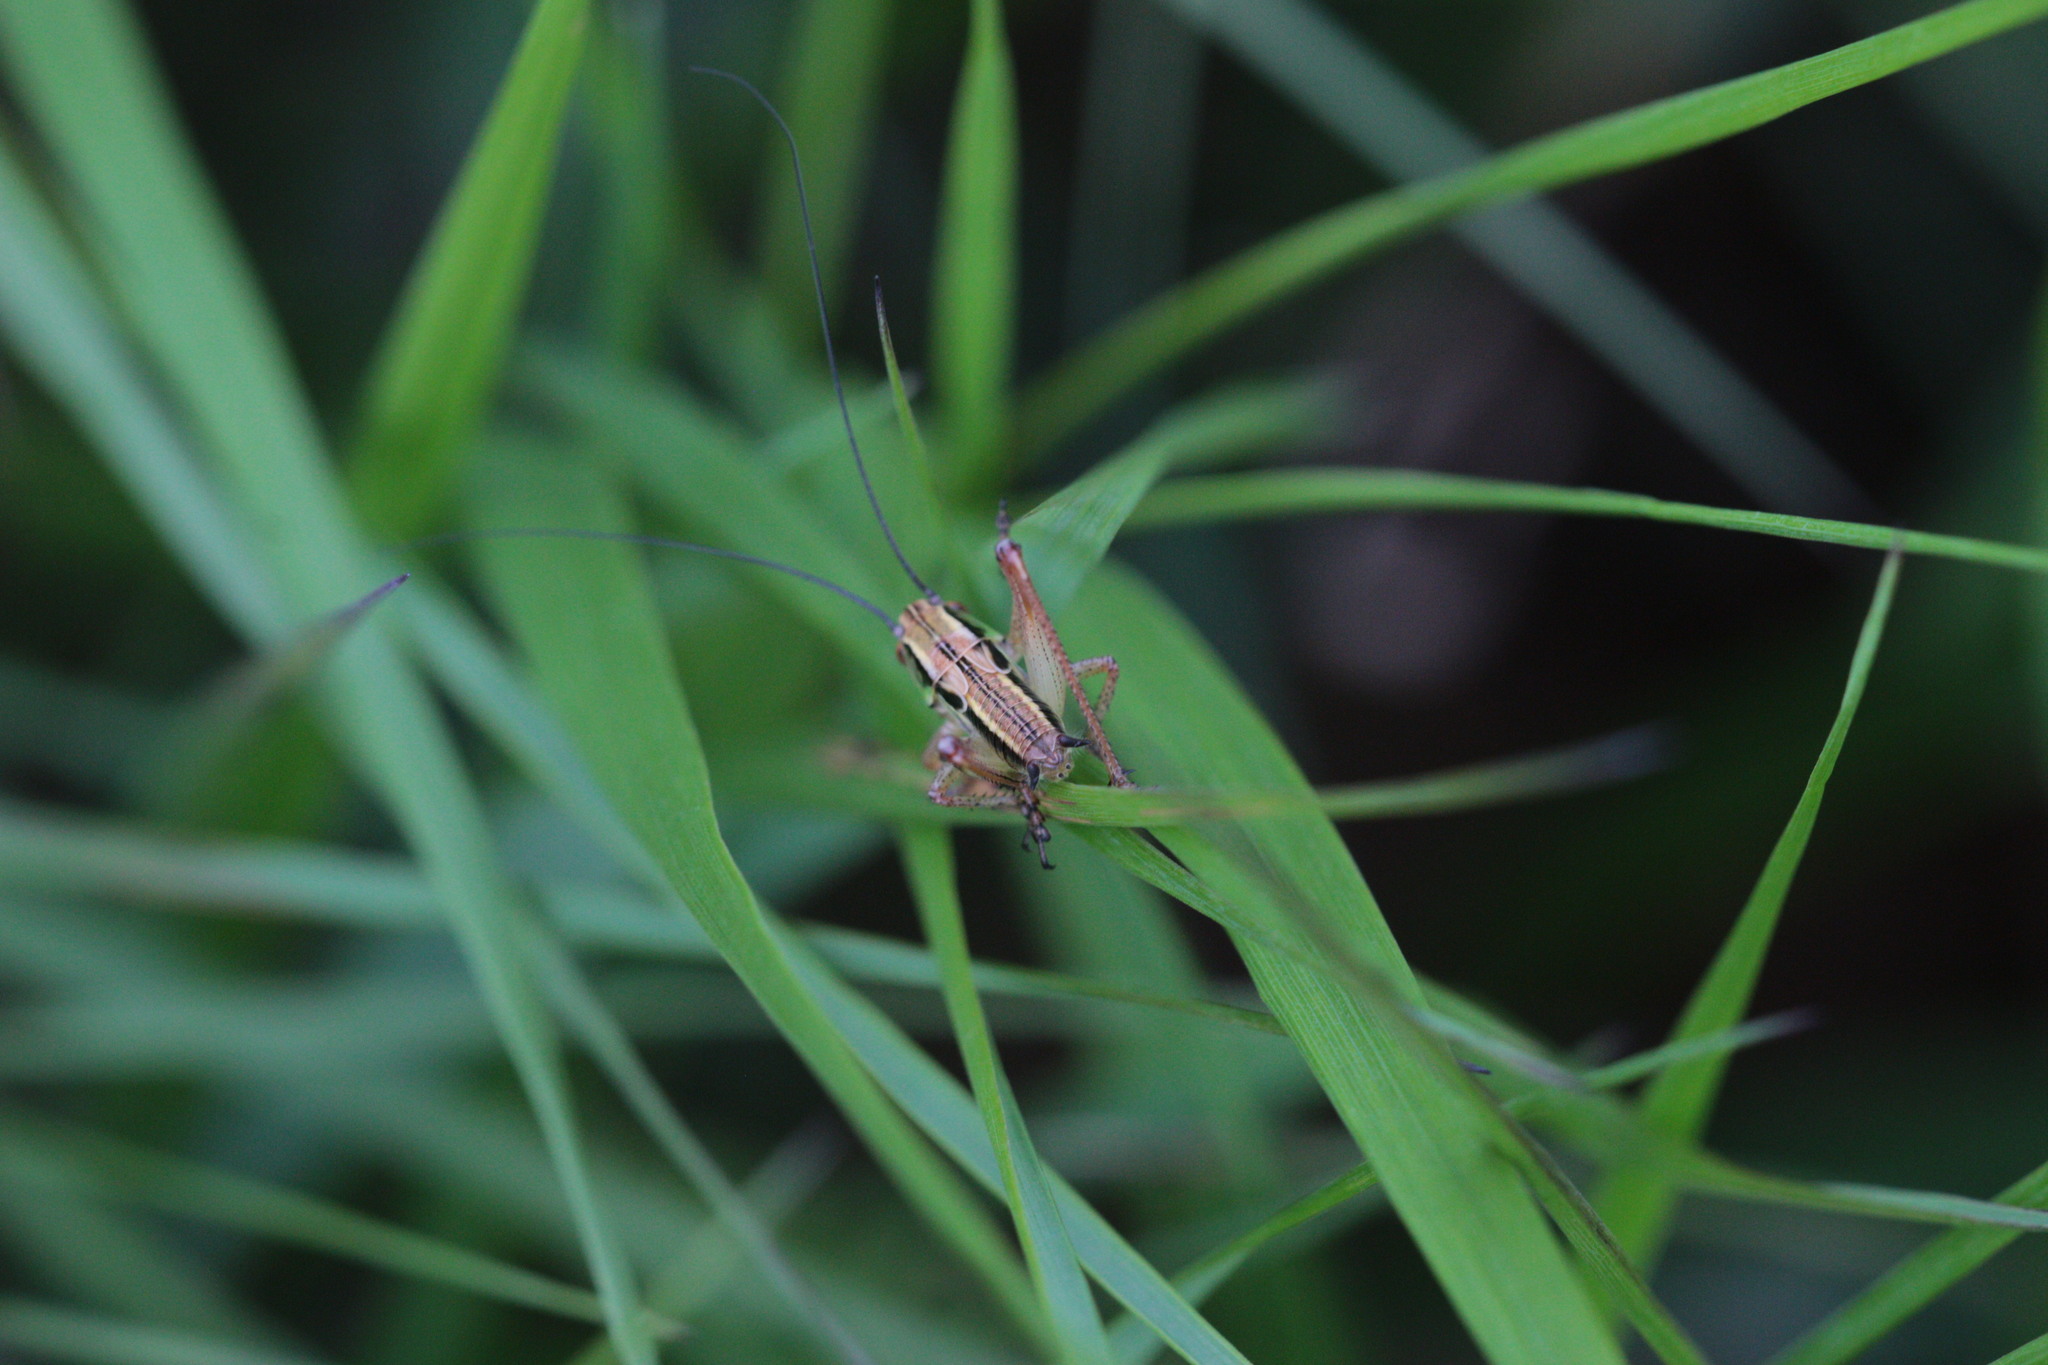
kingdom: Animalia
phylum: Arthropoda
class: Insecta
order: Orthoptera
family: Tettigoniidae
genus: Roeseliana
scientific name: Roeseliana roeselii
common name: Roesel's bush cricket
